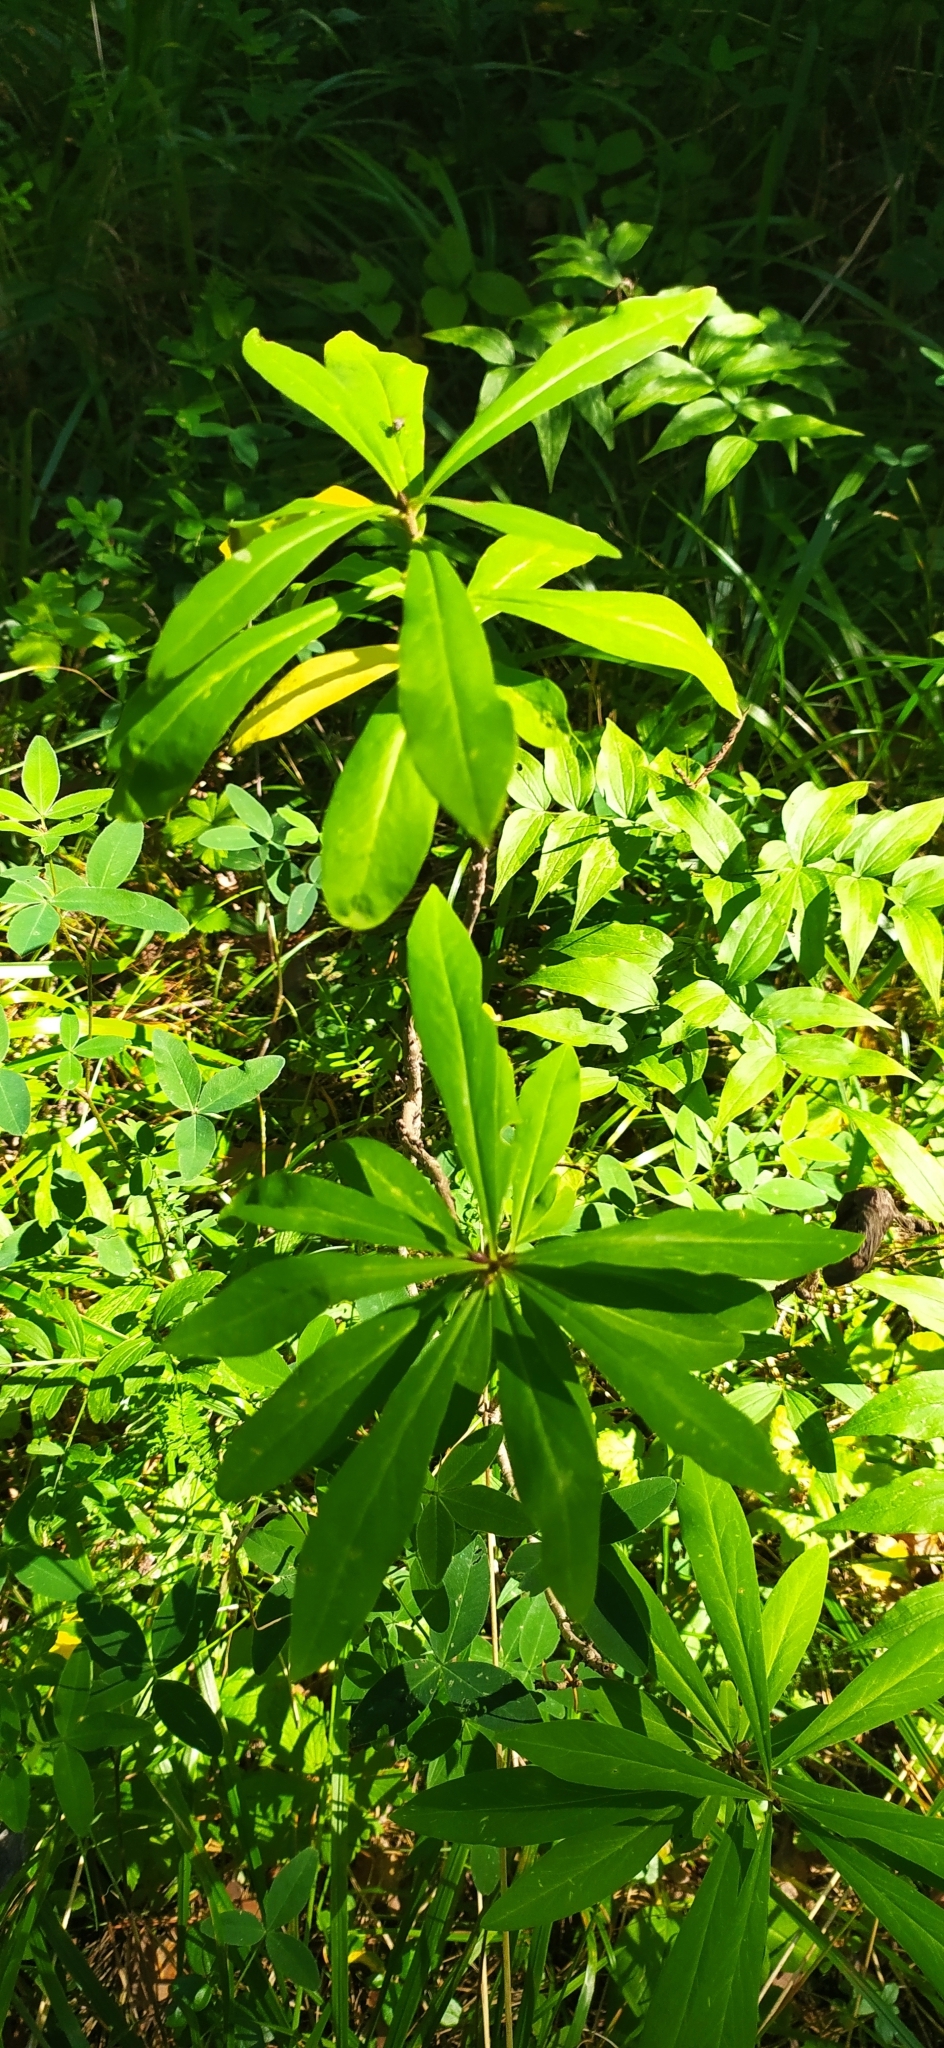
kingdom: Plantae
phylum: Tracheophyta
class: Magnoliopsida
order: Malvales
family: Thymelaeaceae
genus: Daphne
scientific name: Daphne mezereum
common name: Mezereon
